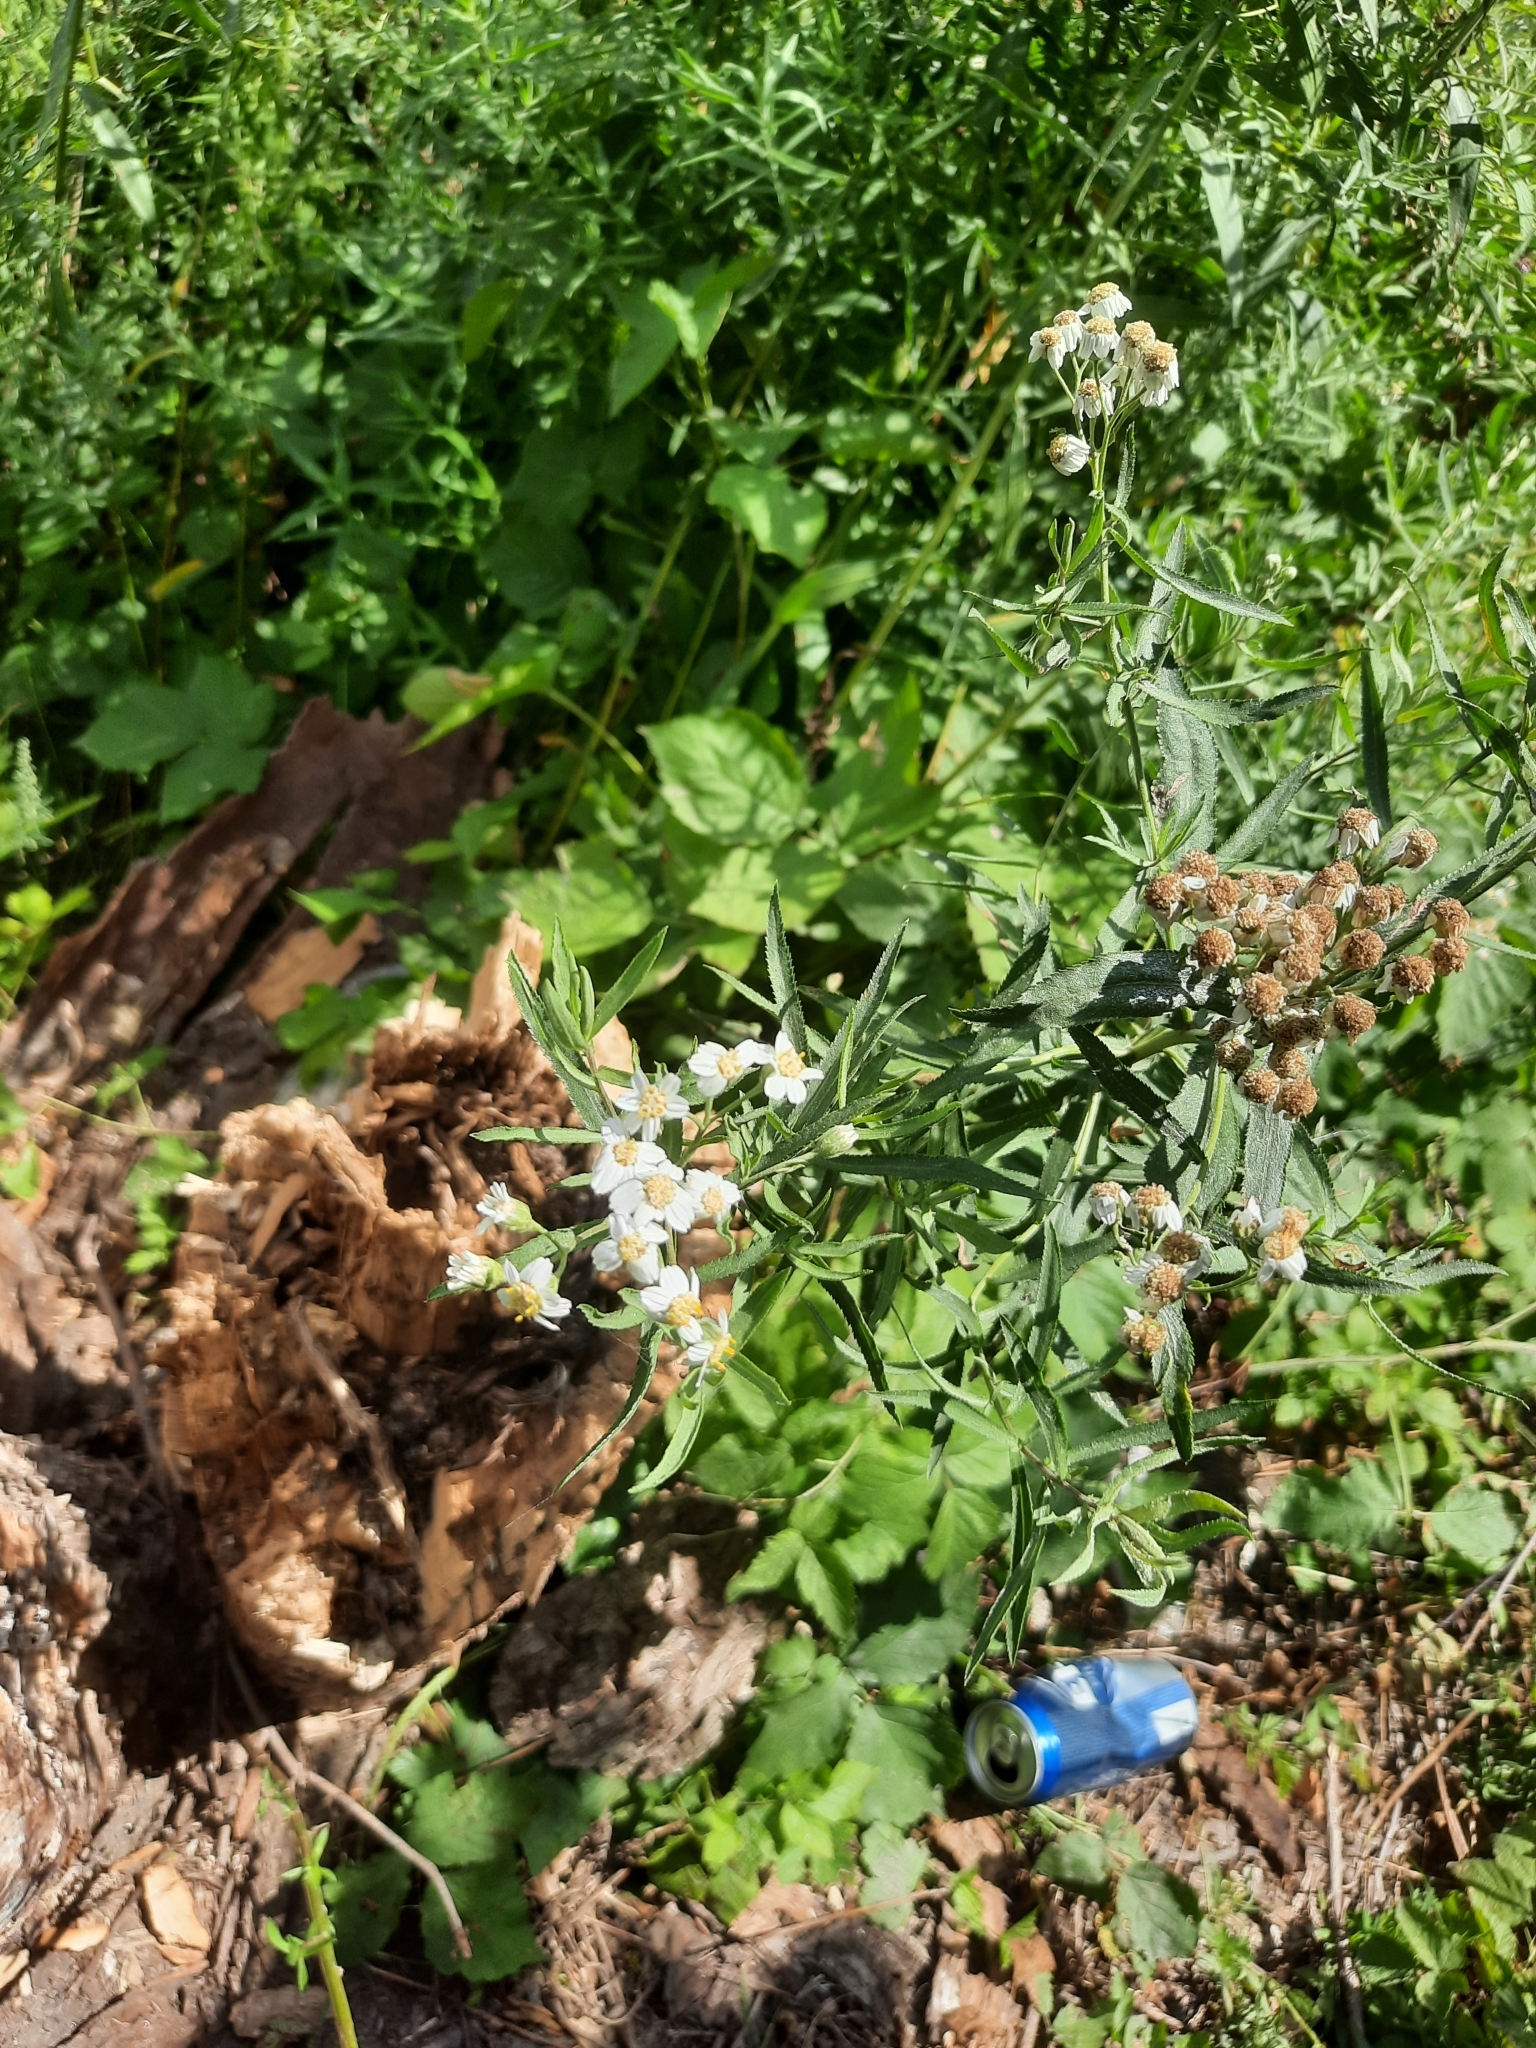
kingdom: Plantae
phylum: Tracheophyta
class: Magnoliopsida
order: Asterales
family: Asteraceae
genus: Achillea
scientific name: Achillea salicifolia
